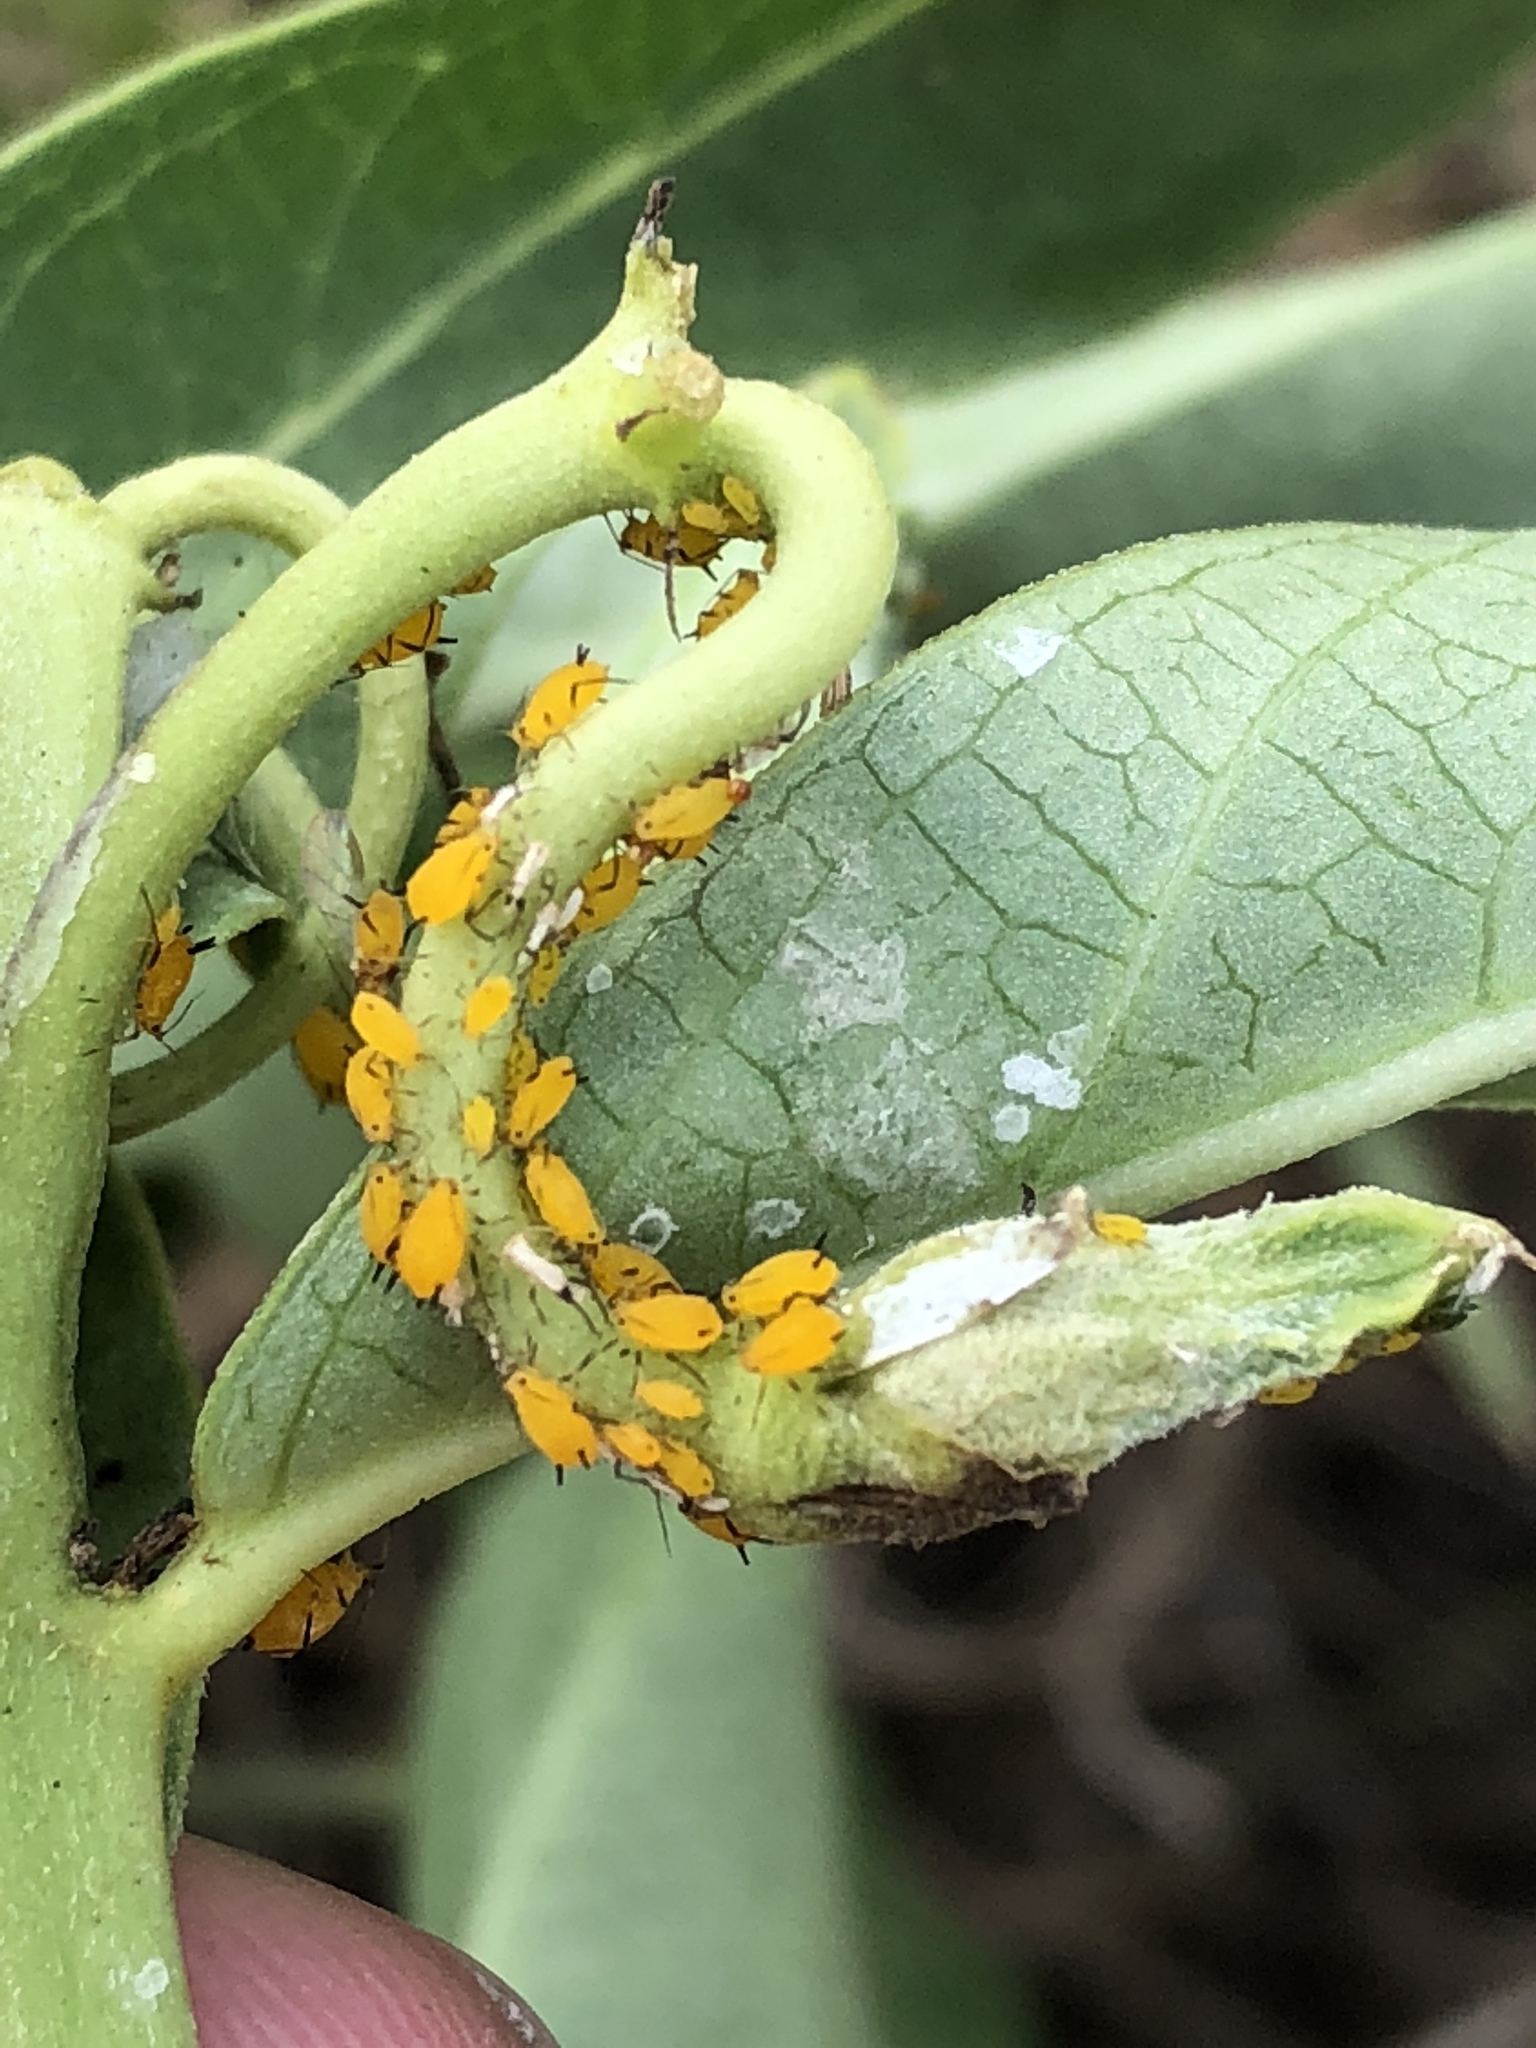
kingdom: Animalia
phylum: Arthropoda
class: Insecta
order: Hemiptera
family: Aphididae
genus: Aphis
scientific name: Aphis nerii
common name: Oleander aphid
